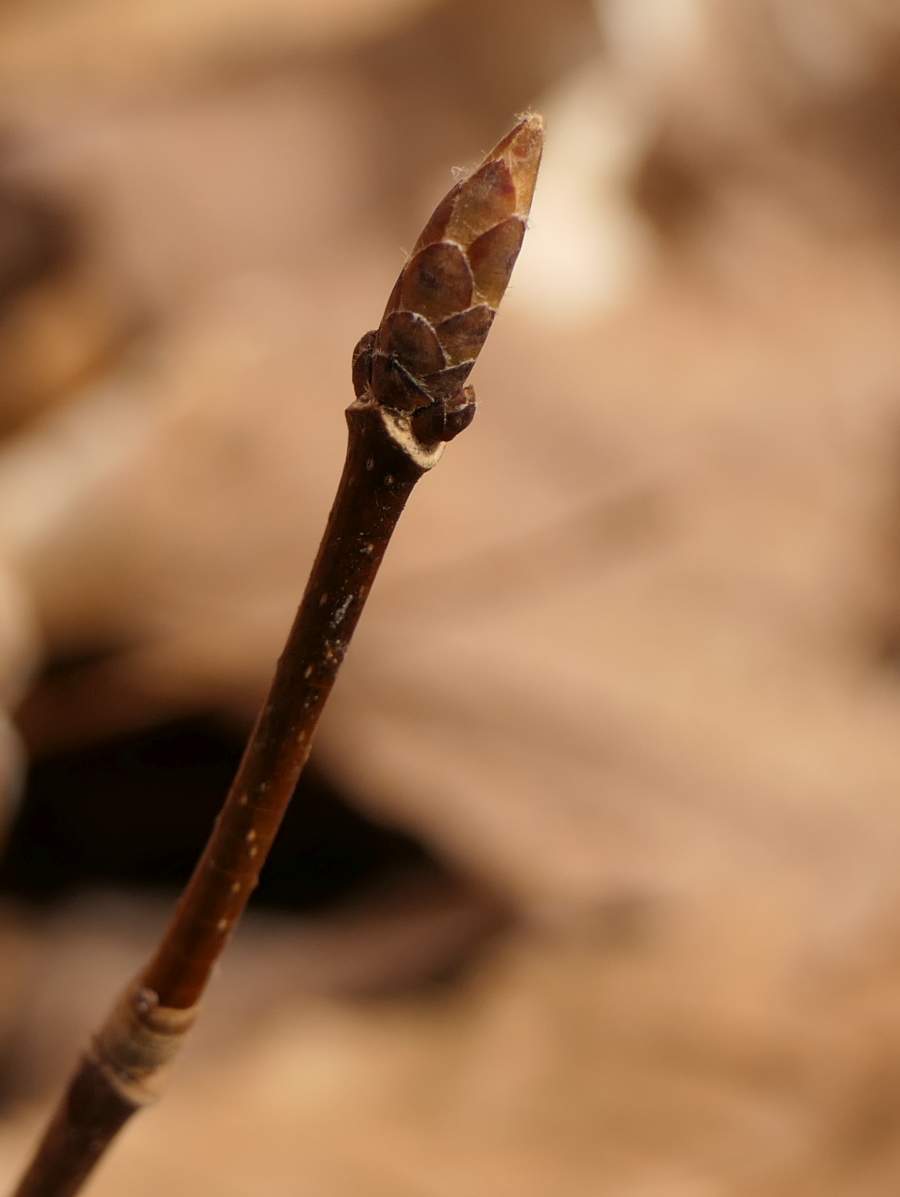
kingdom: Plantae
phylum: Tracheophyta
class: Magnoliopsida
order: Sapindales
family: Sapindaceae
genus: Acer
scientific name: Acer saccharum
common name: Sugar maple
